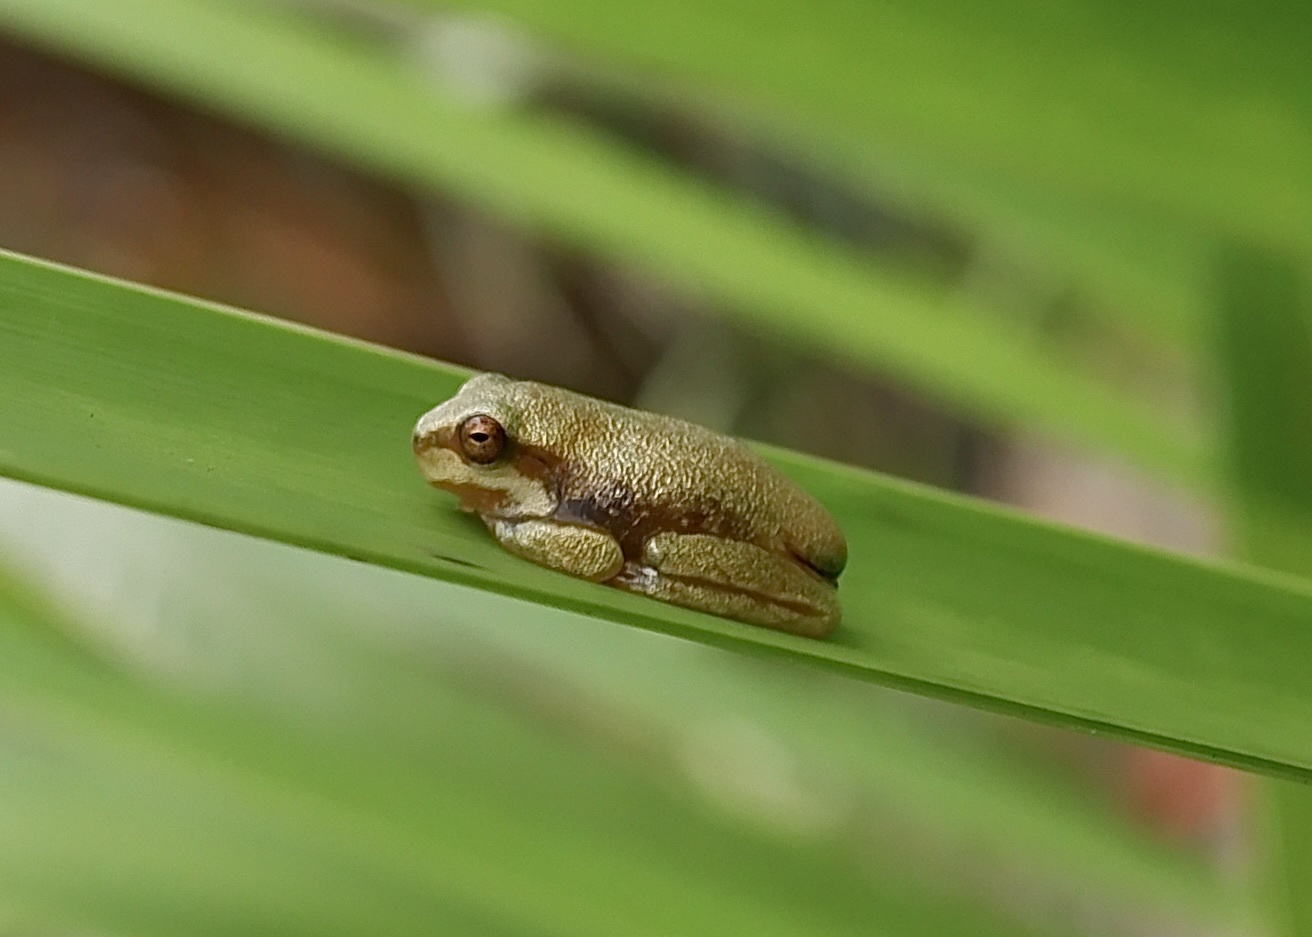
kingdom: Animalia
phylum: Chordata
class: Amphibia
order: Anura
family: Pelodryadidae
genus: Litoria
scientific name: Litoria fallax
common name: Eastern dwarf treefrog
